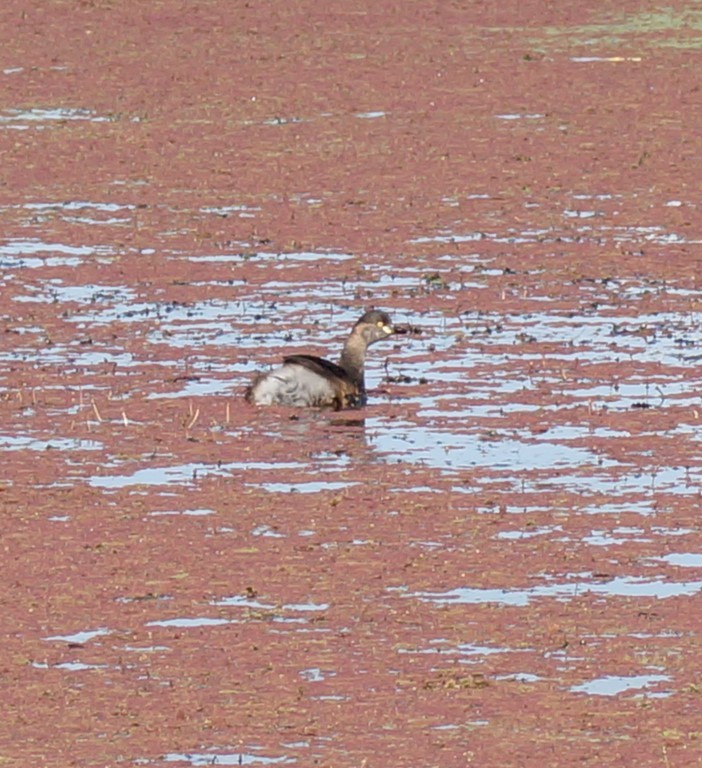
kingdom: Animalia
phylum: Chordata
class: Aves
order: Podicipediformes
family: Podicipedidae
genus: Tachybaptus
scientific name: Tachybaptus novaehollandiae
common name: Australasian grebe
